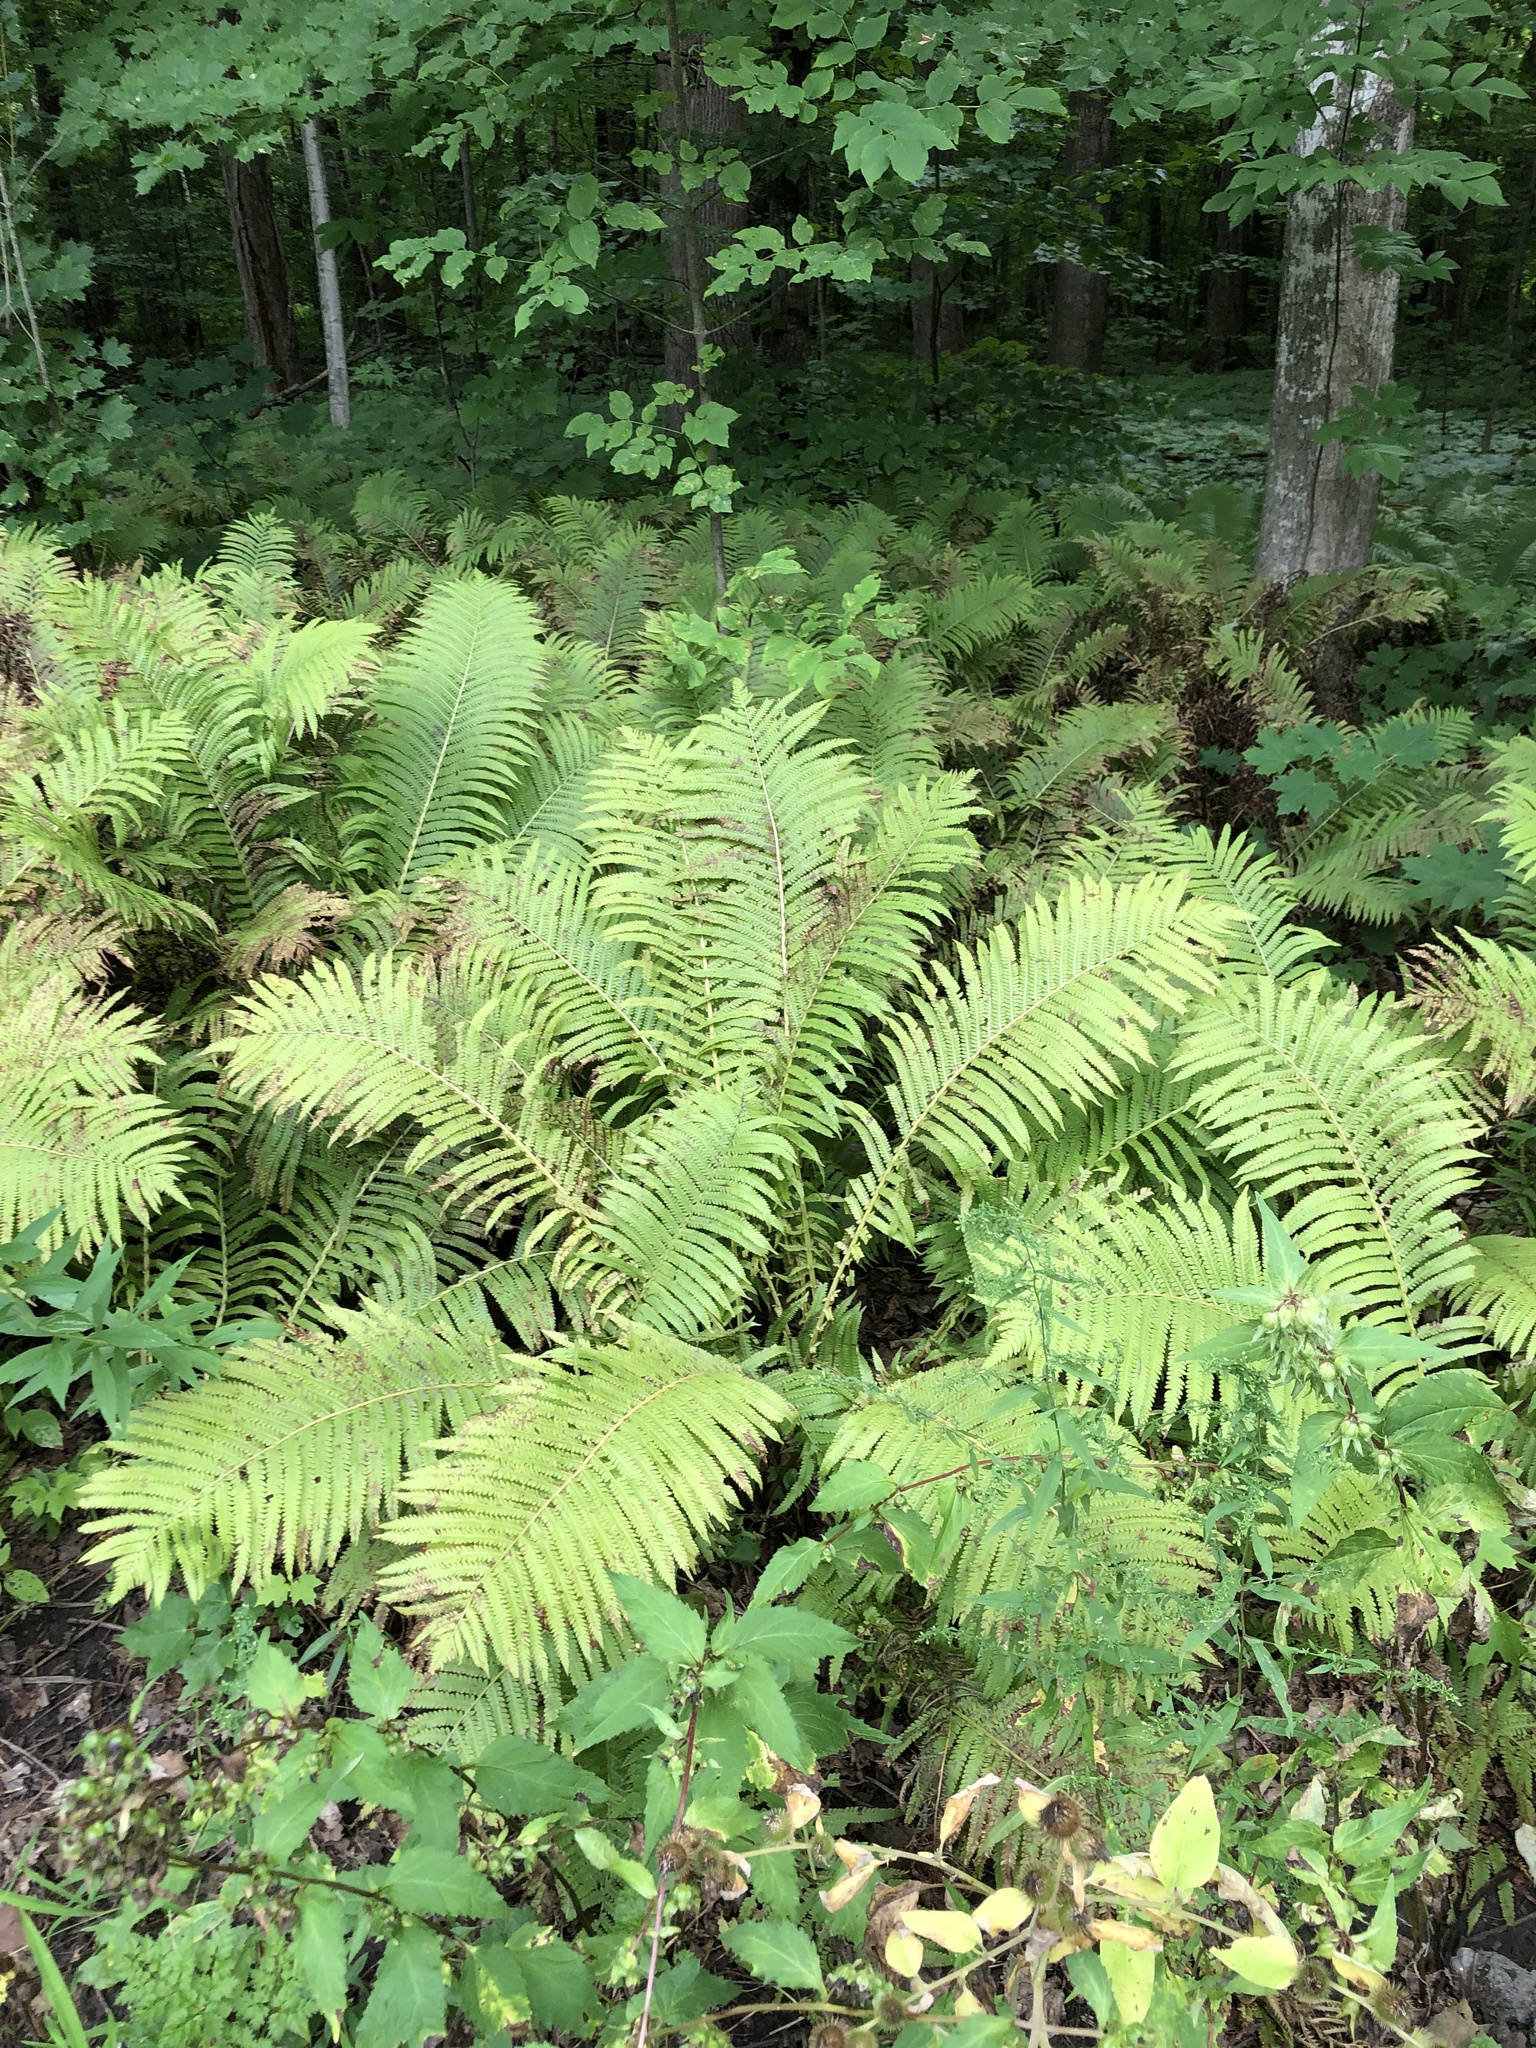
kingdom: Plantae
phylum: Tracheophyta
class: Polypodiopsida
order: Polypodiales
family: Onocleaceae
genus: Matteuccia
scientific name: Matteuccia struthiopteris
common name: Ostrich fern
